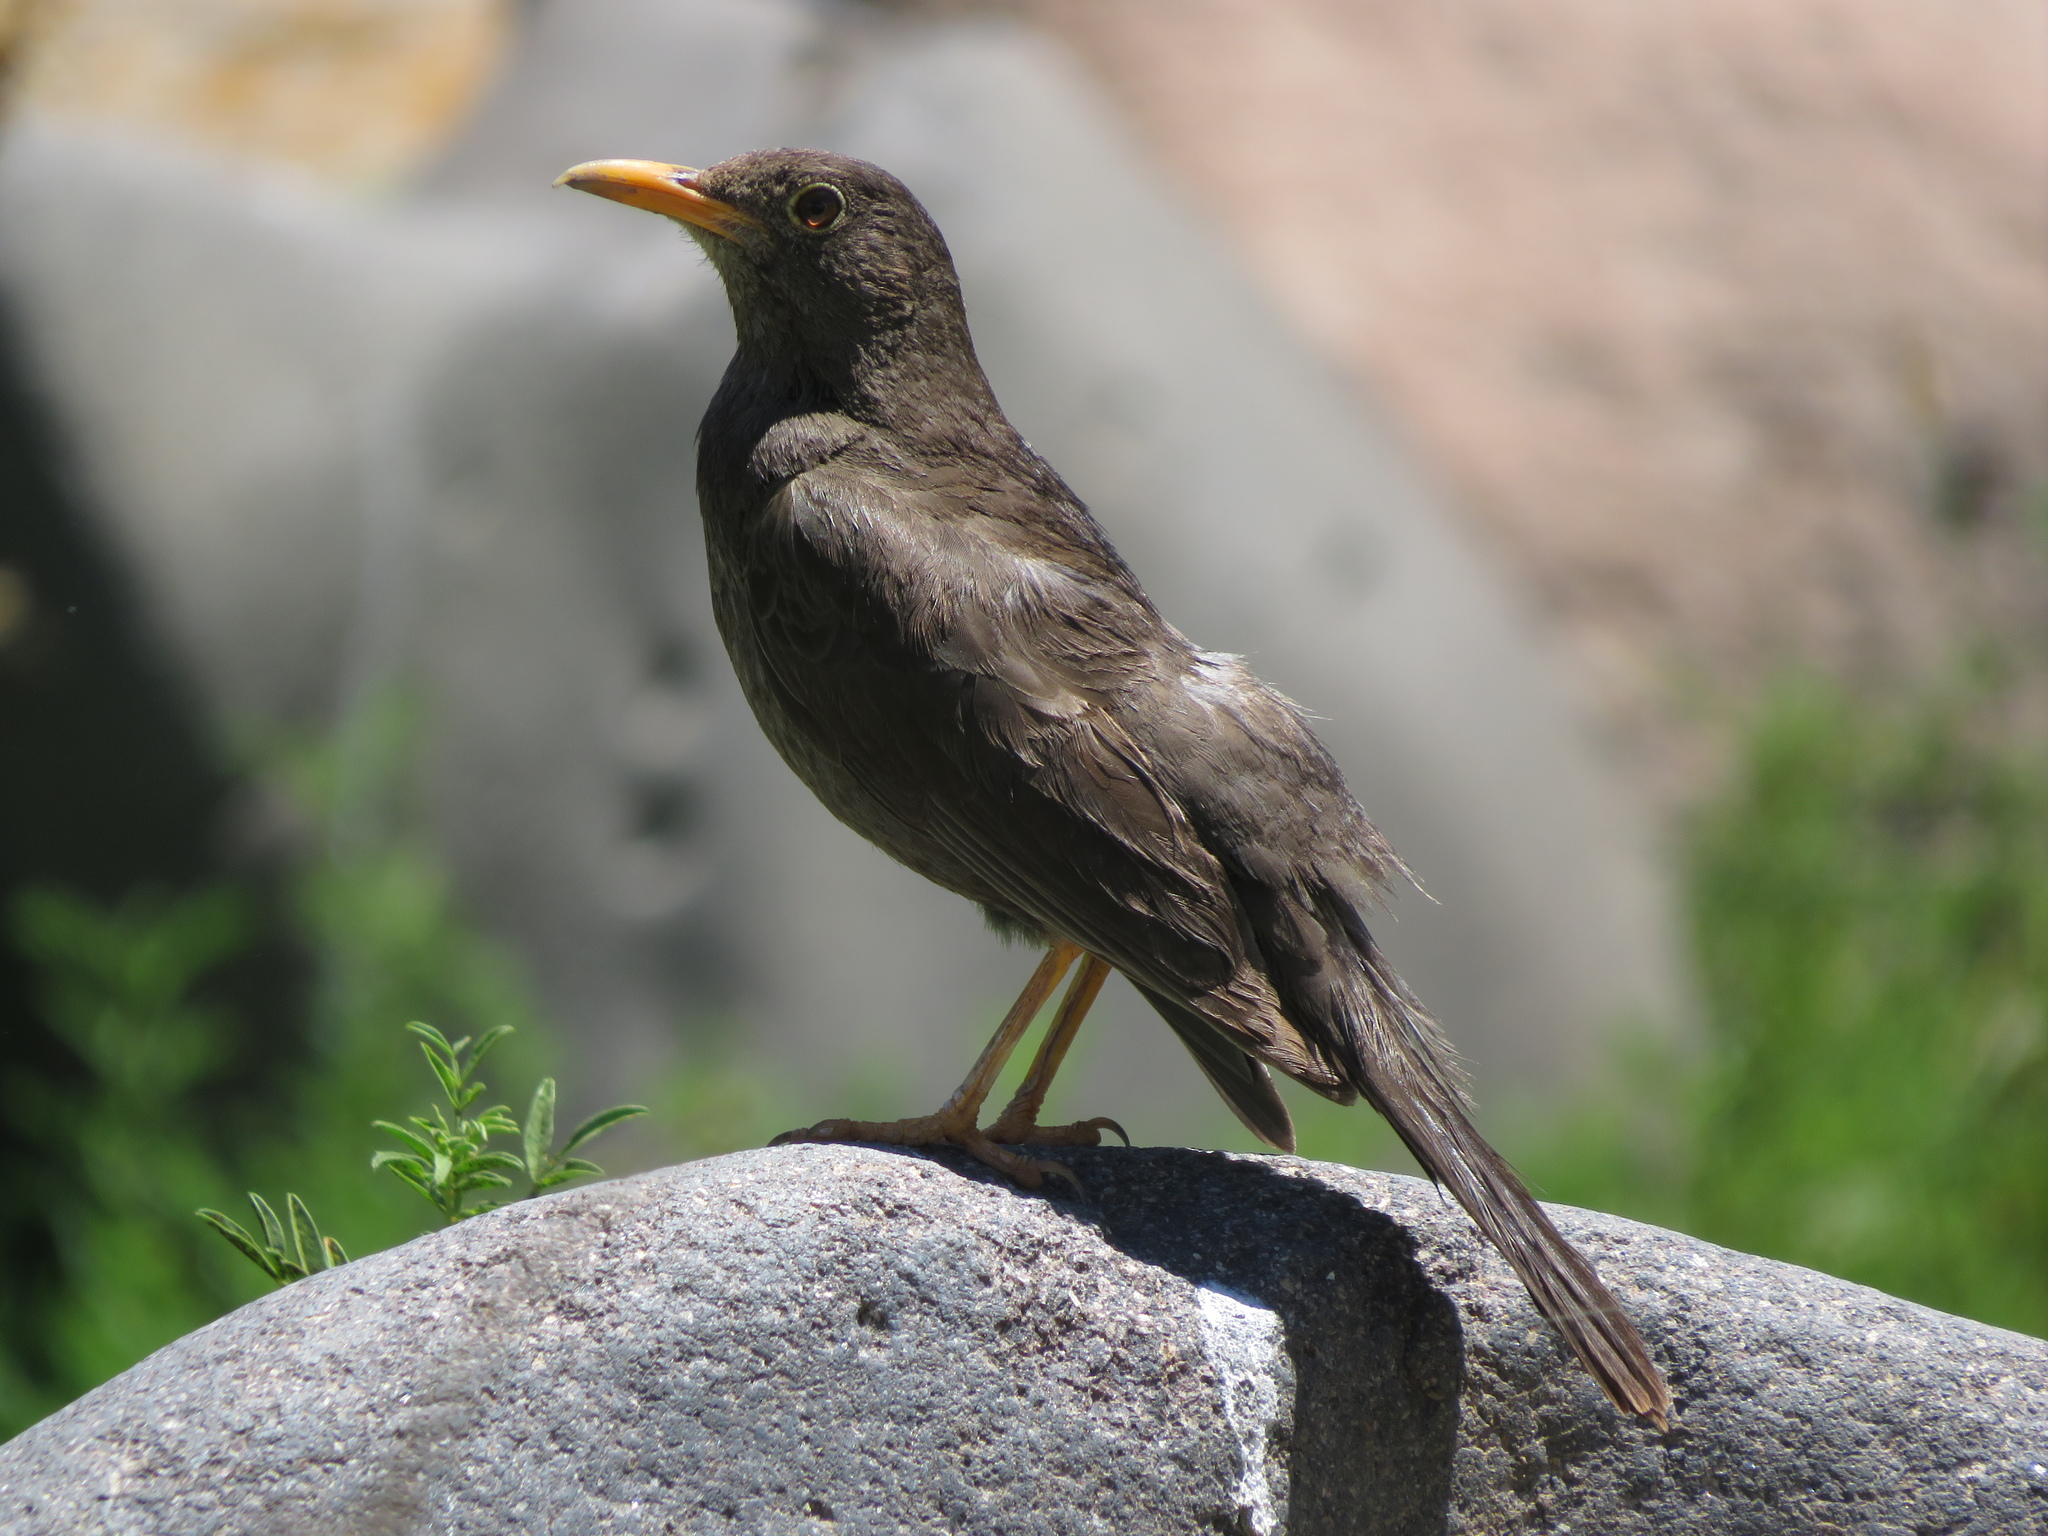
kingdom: Animalia
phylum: Chordata
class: Aves
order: Passeriformes
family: Turdidae
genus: Turdus
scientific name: Turdus chiguanco
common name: Chiguanco thrush
